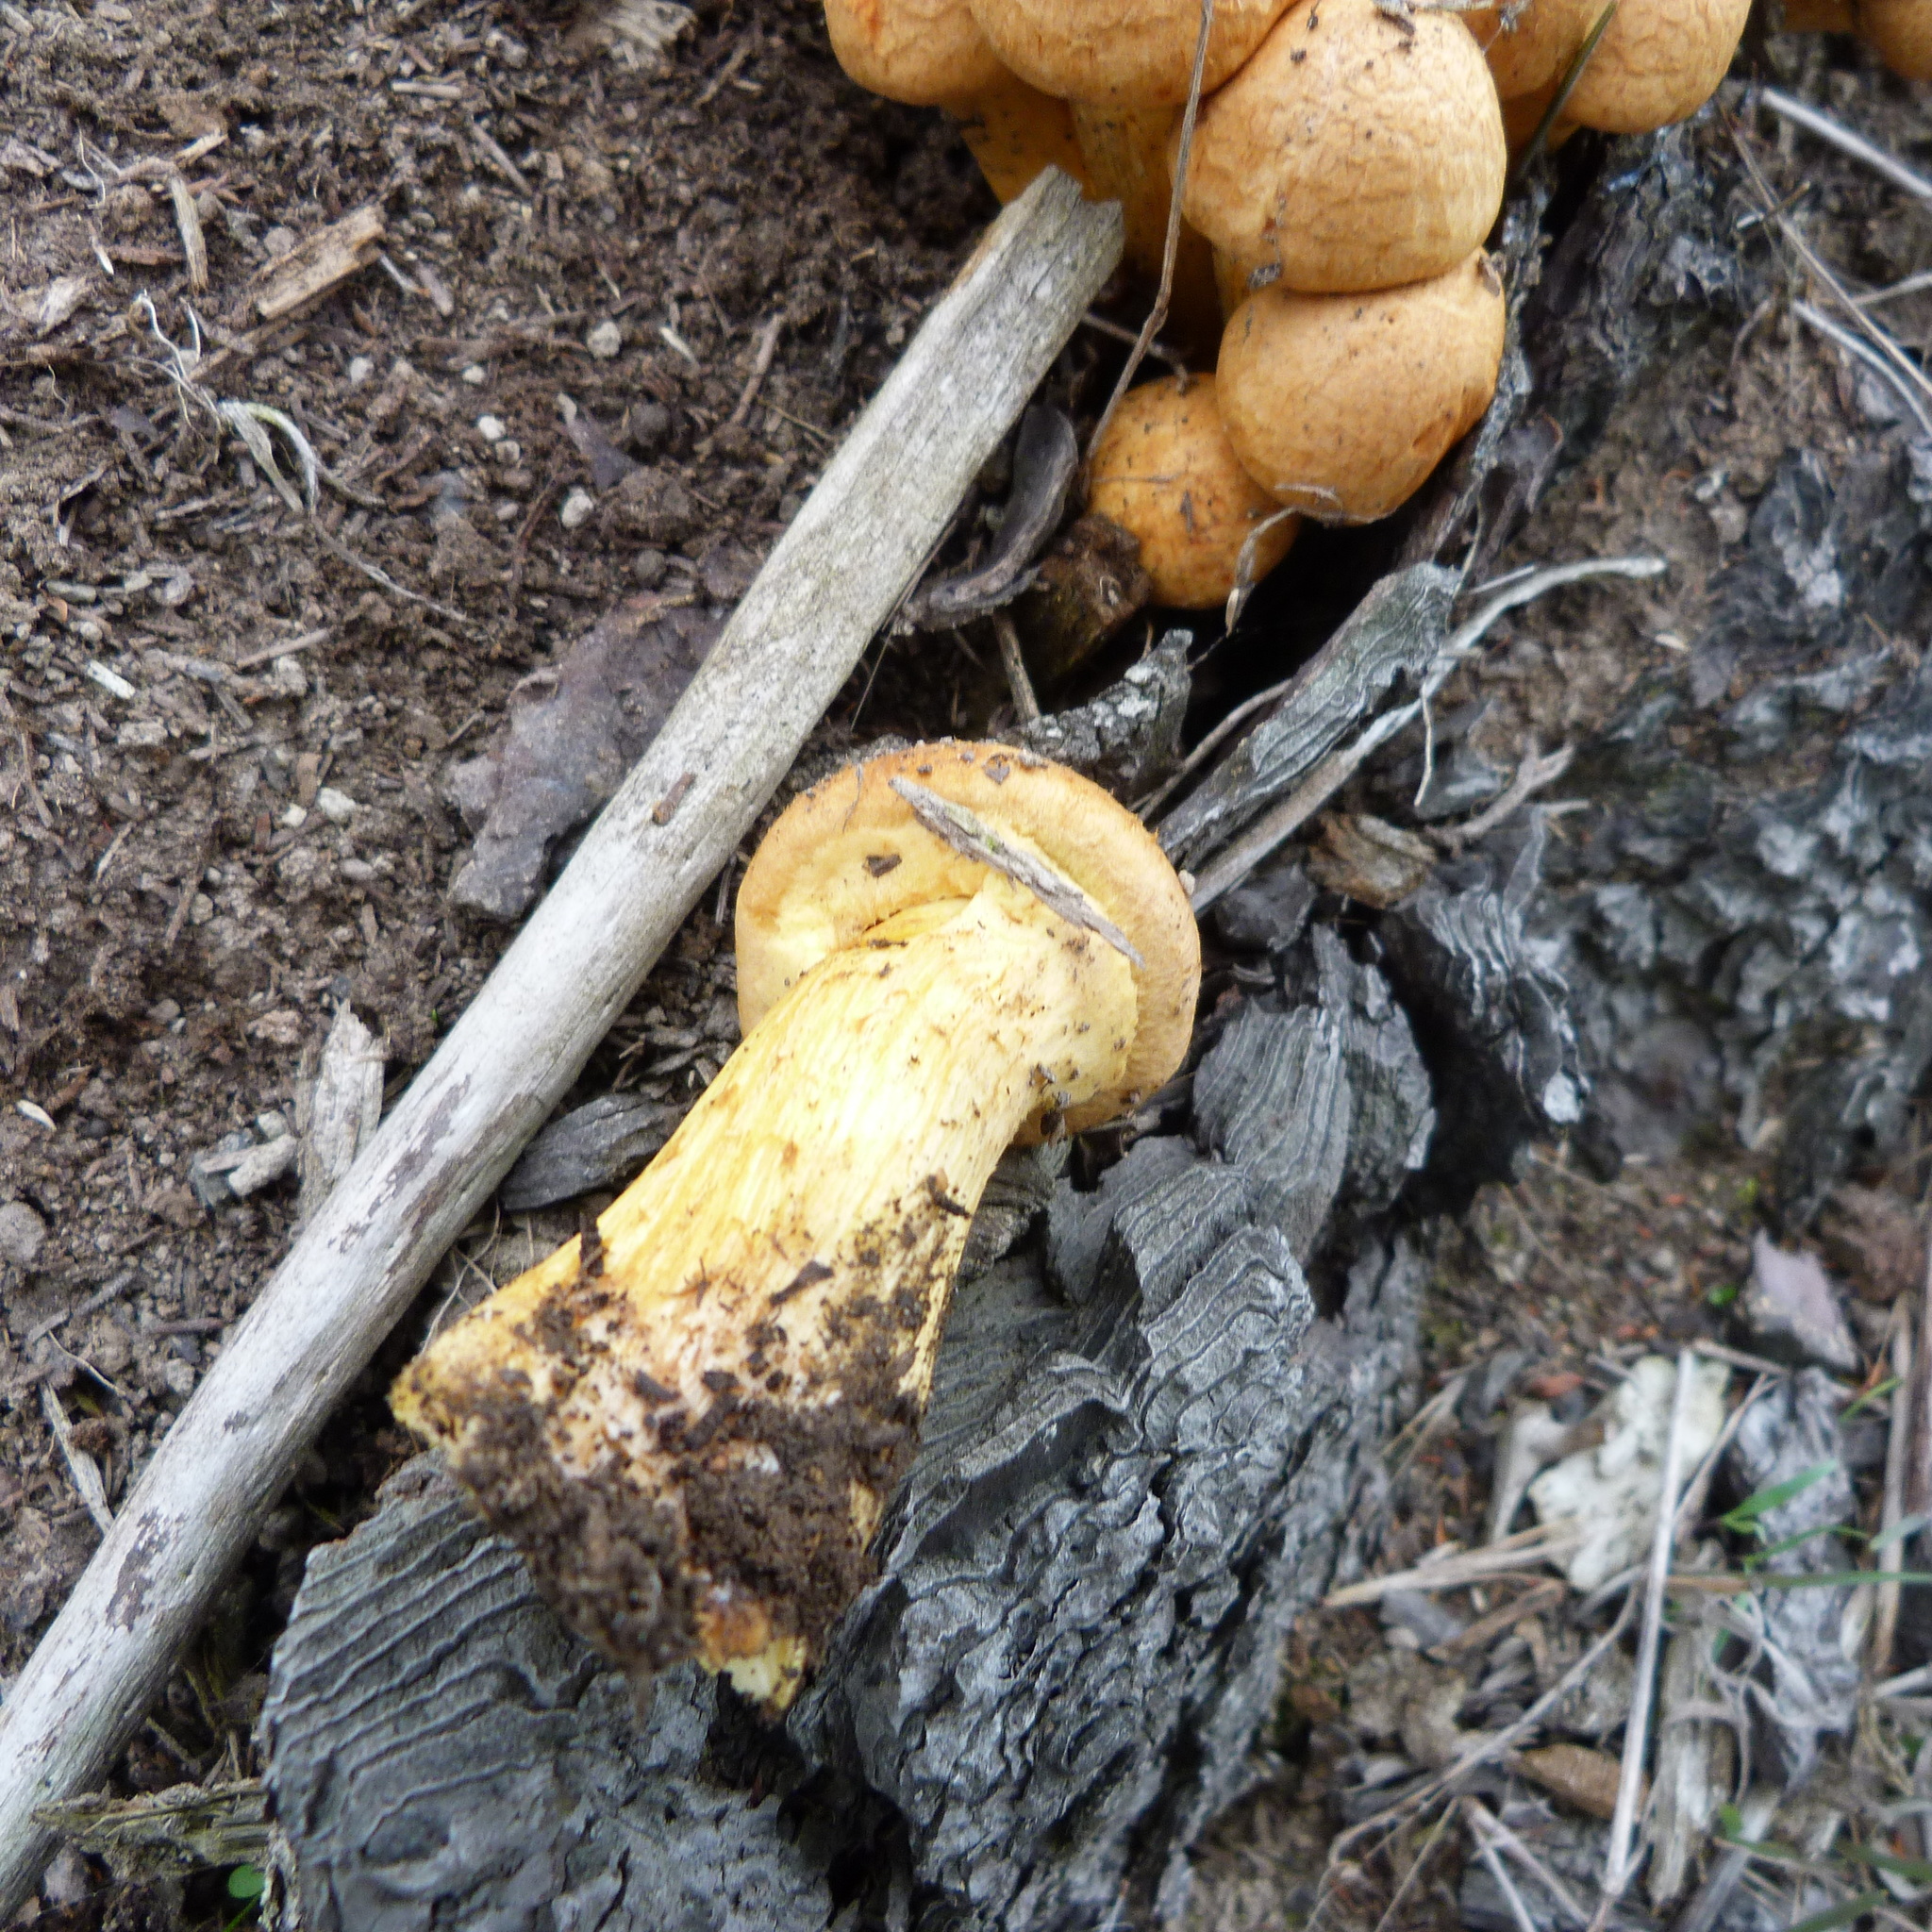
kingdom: Fungi
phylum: Basidiomycota
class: Agaricomycetes
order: Agaricales
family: Hymenogastraceae
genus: Gymnopilus
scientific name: Gymnopilus junonius
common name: Spectacular rustgill
